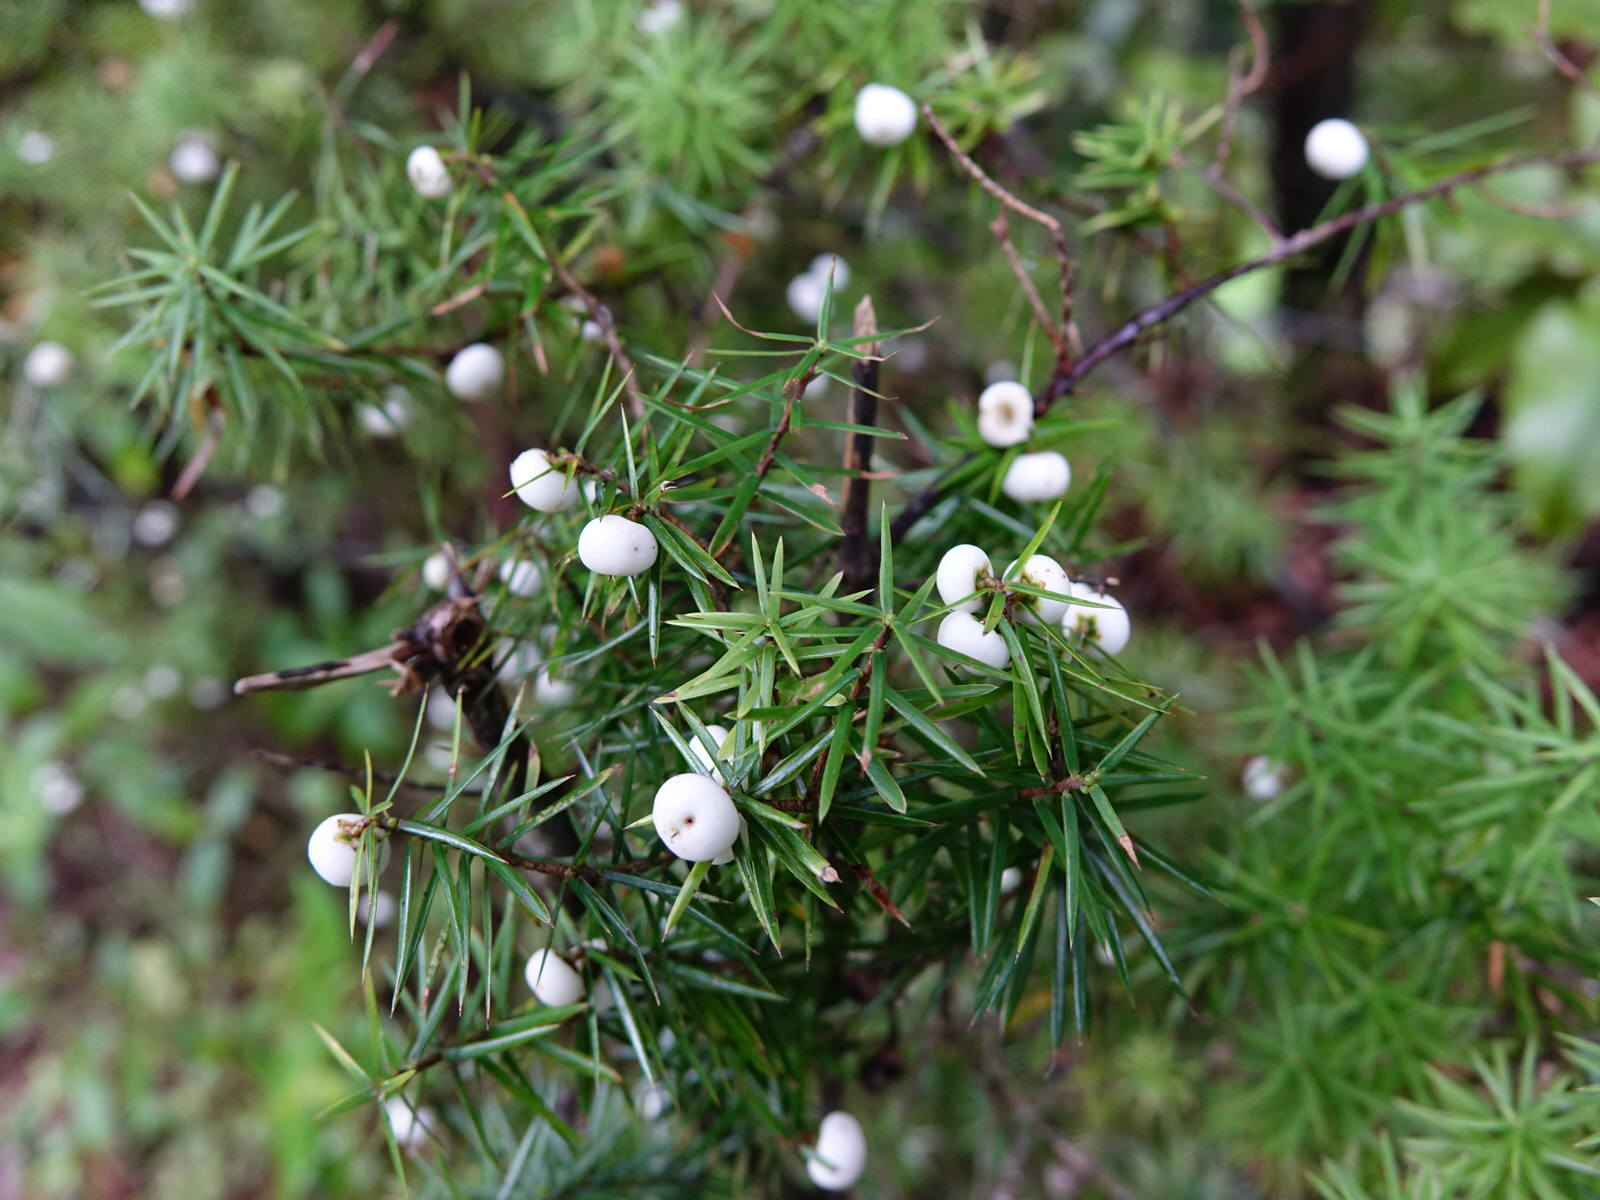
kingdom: Plantae
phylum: Tracheophyta
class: Magnoliopsida
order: Ericales
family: Ericaceae
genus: Leptecophylla
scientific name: Leptecophylla juniperina
